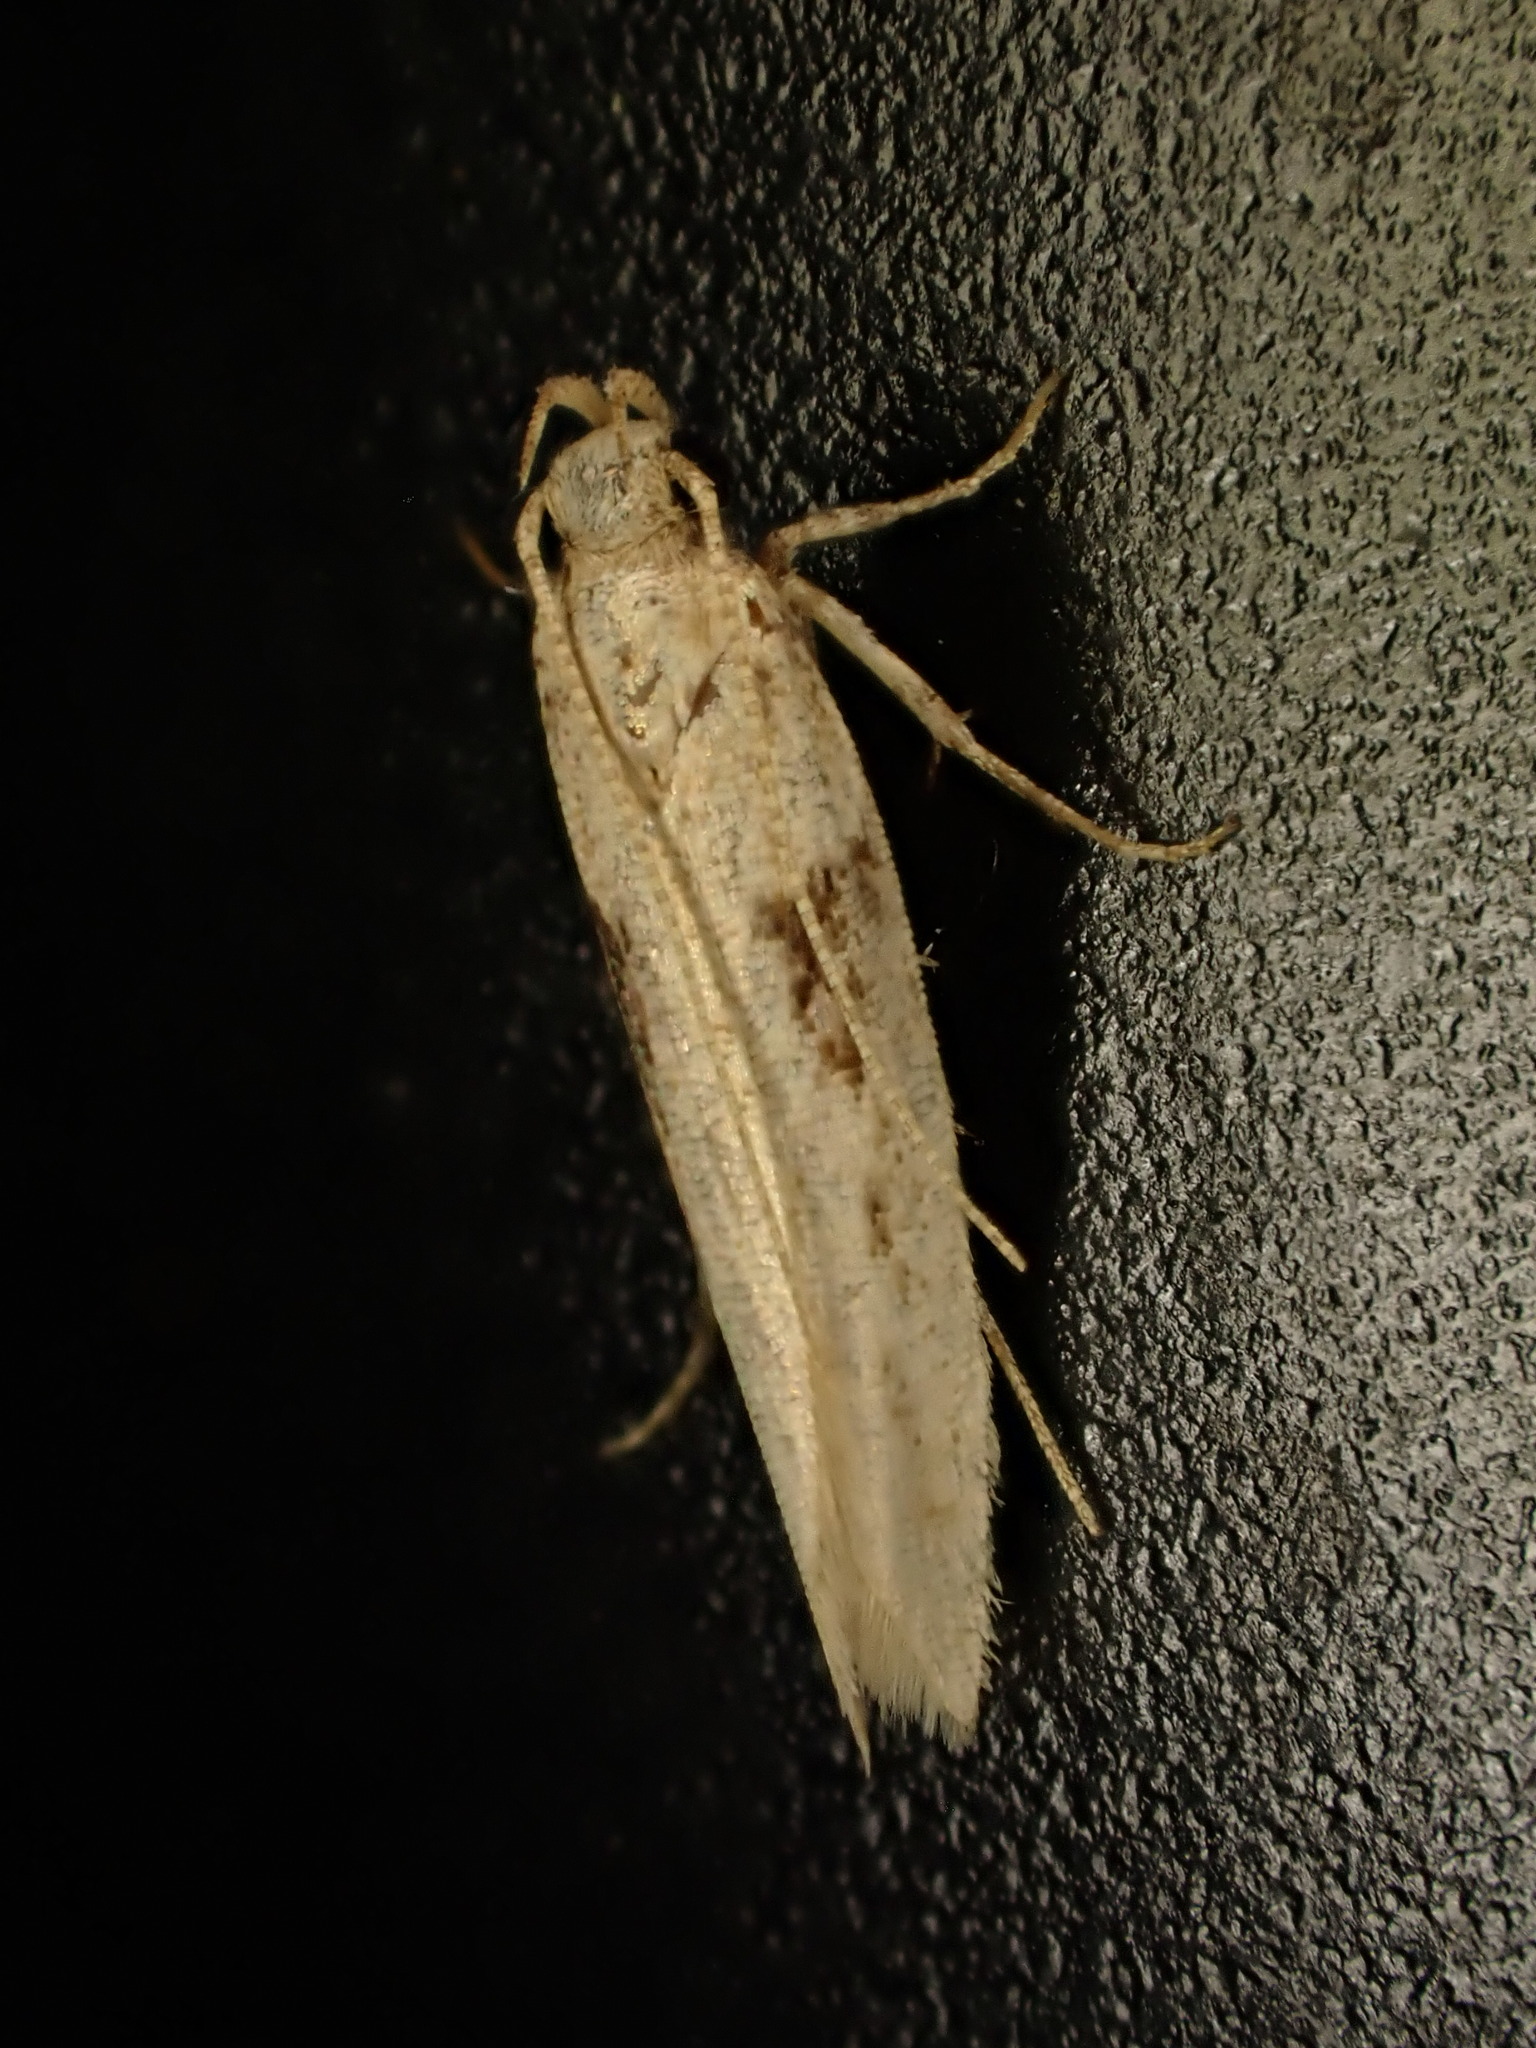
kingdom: Animalia
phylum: Arthropoda
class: Insecta
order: Lepidoptera
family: Gelechiidae
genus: Symmetrischema
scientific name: Symmetrischema tangolias
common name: Moth
